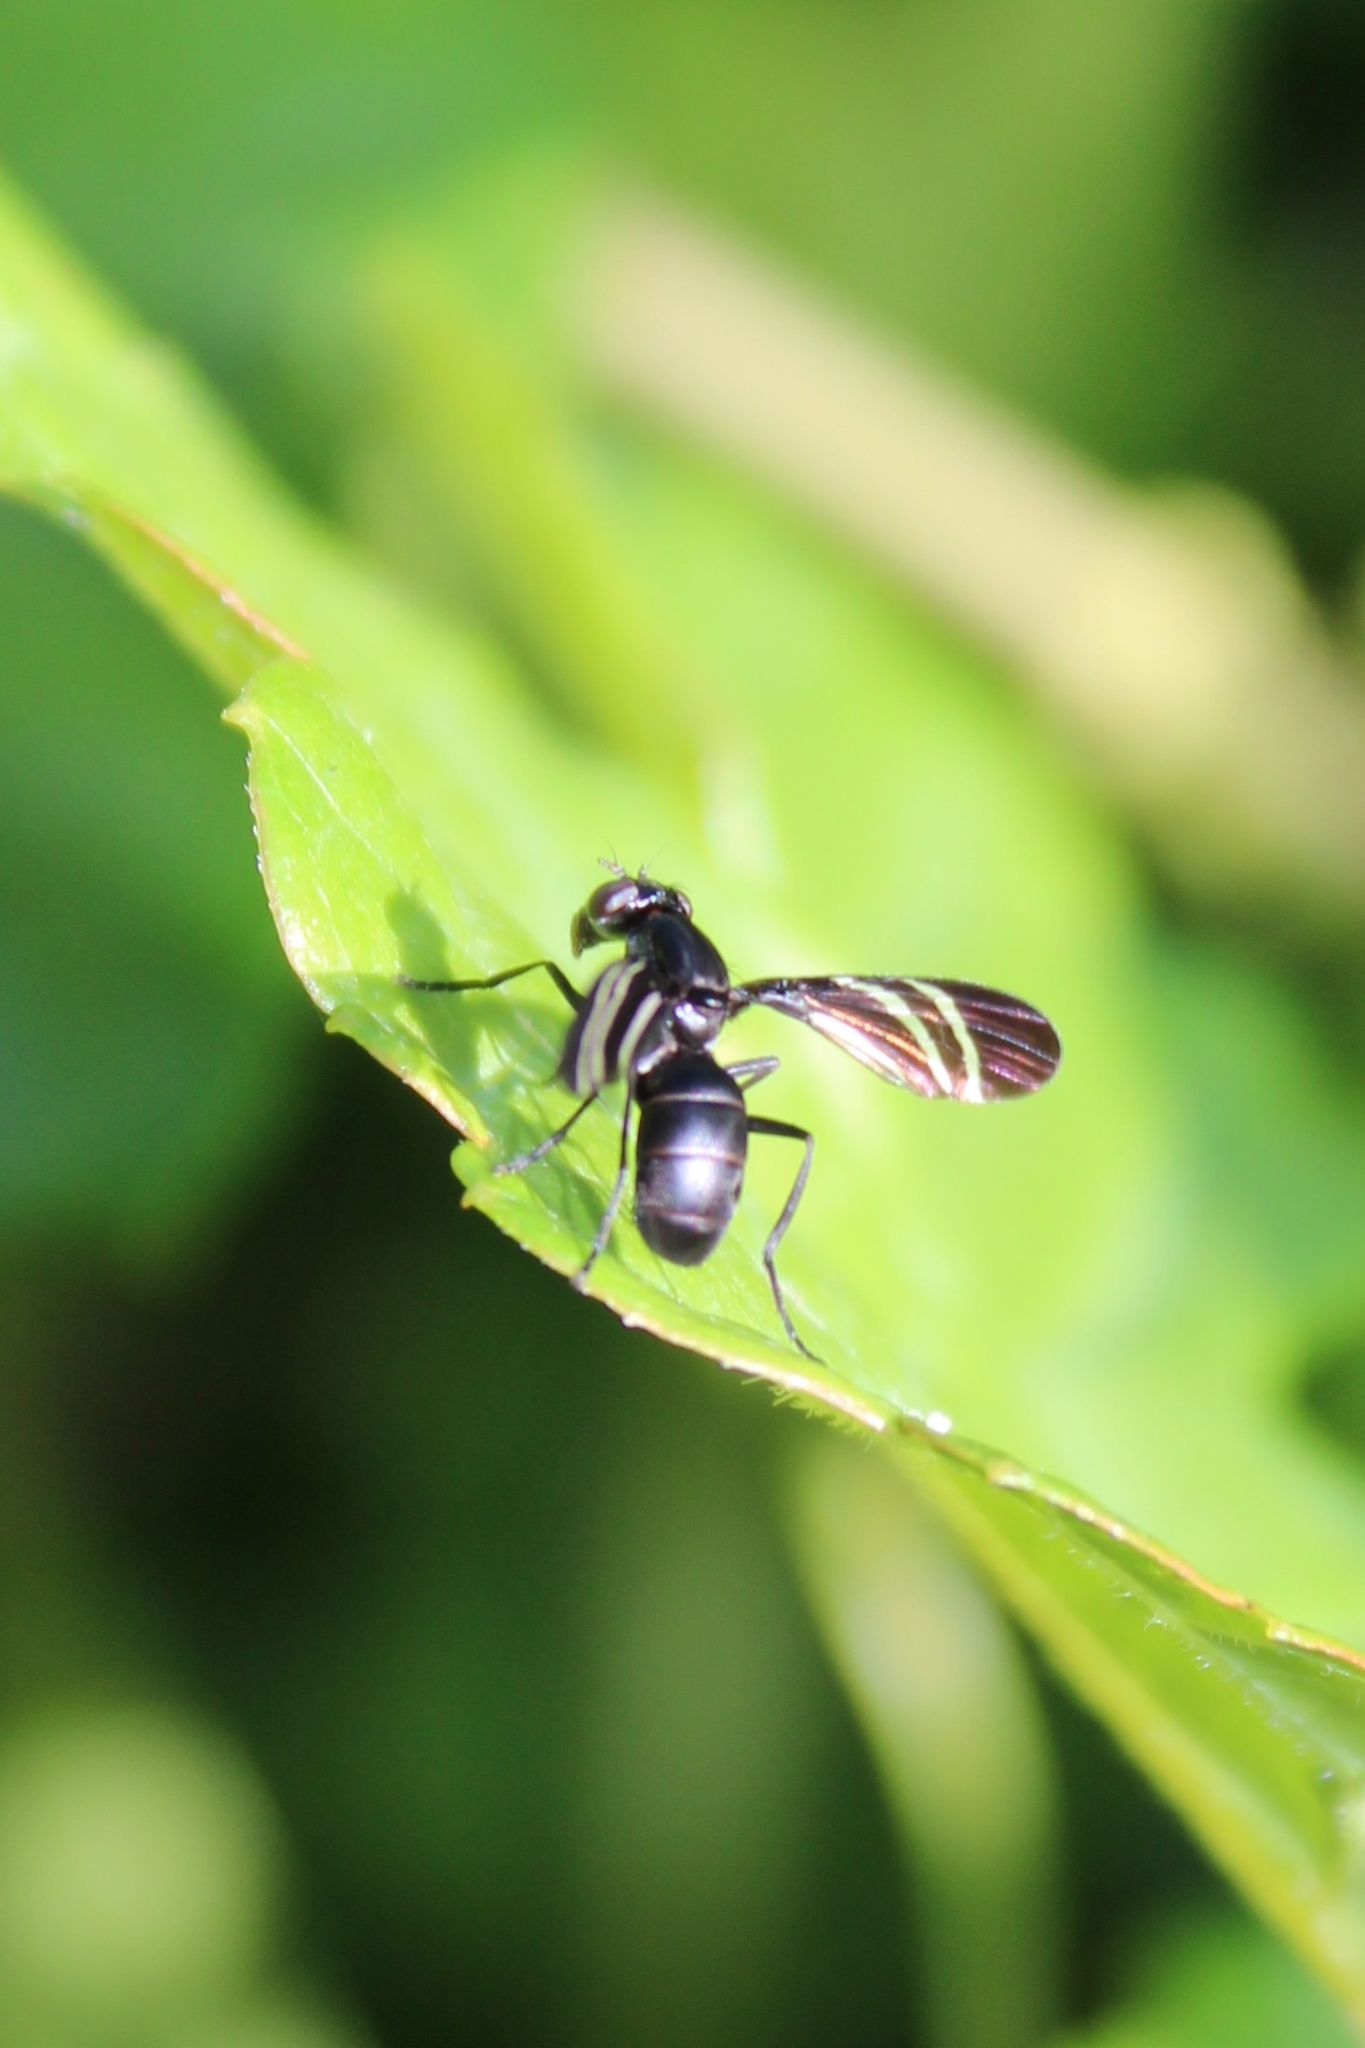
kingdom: Animalia
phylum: Arthropoda
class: Insecta
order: Diptera
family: Ulidiidae
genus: Tritoxa
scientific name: Tritoxa flexa
